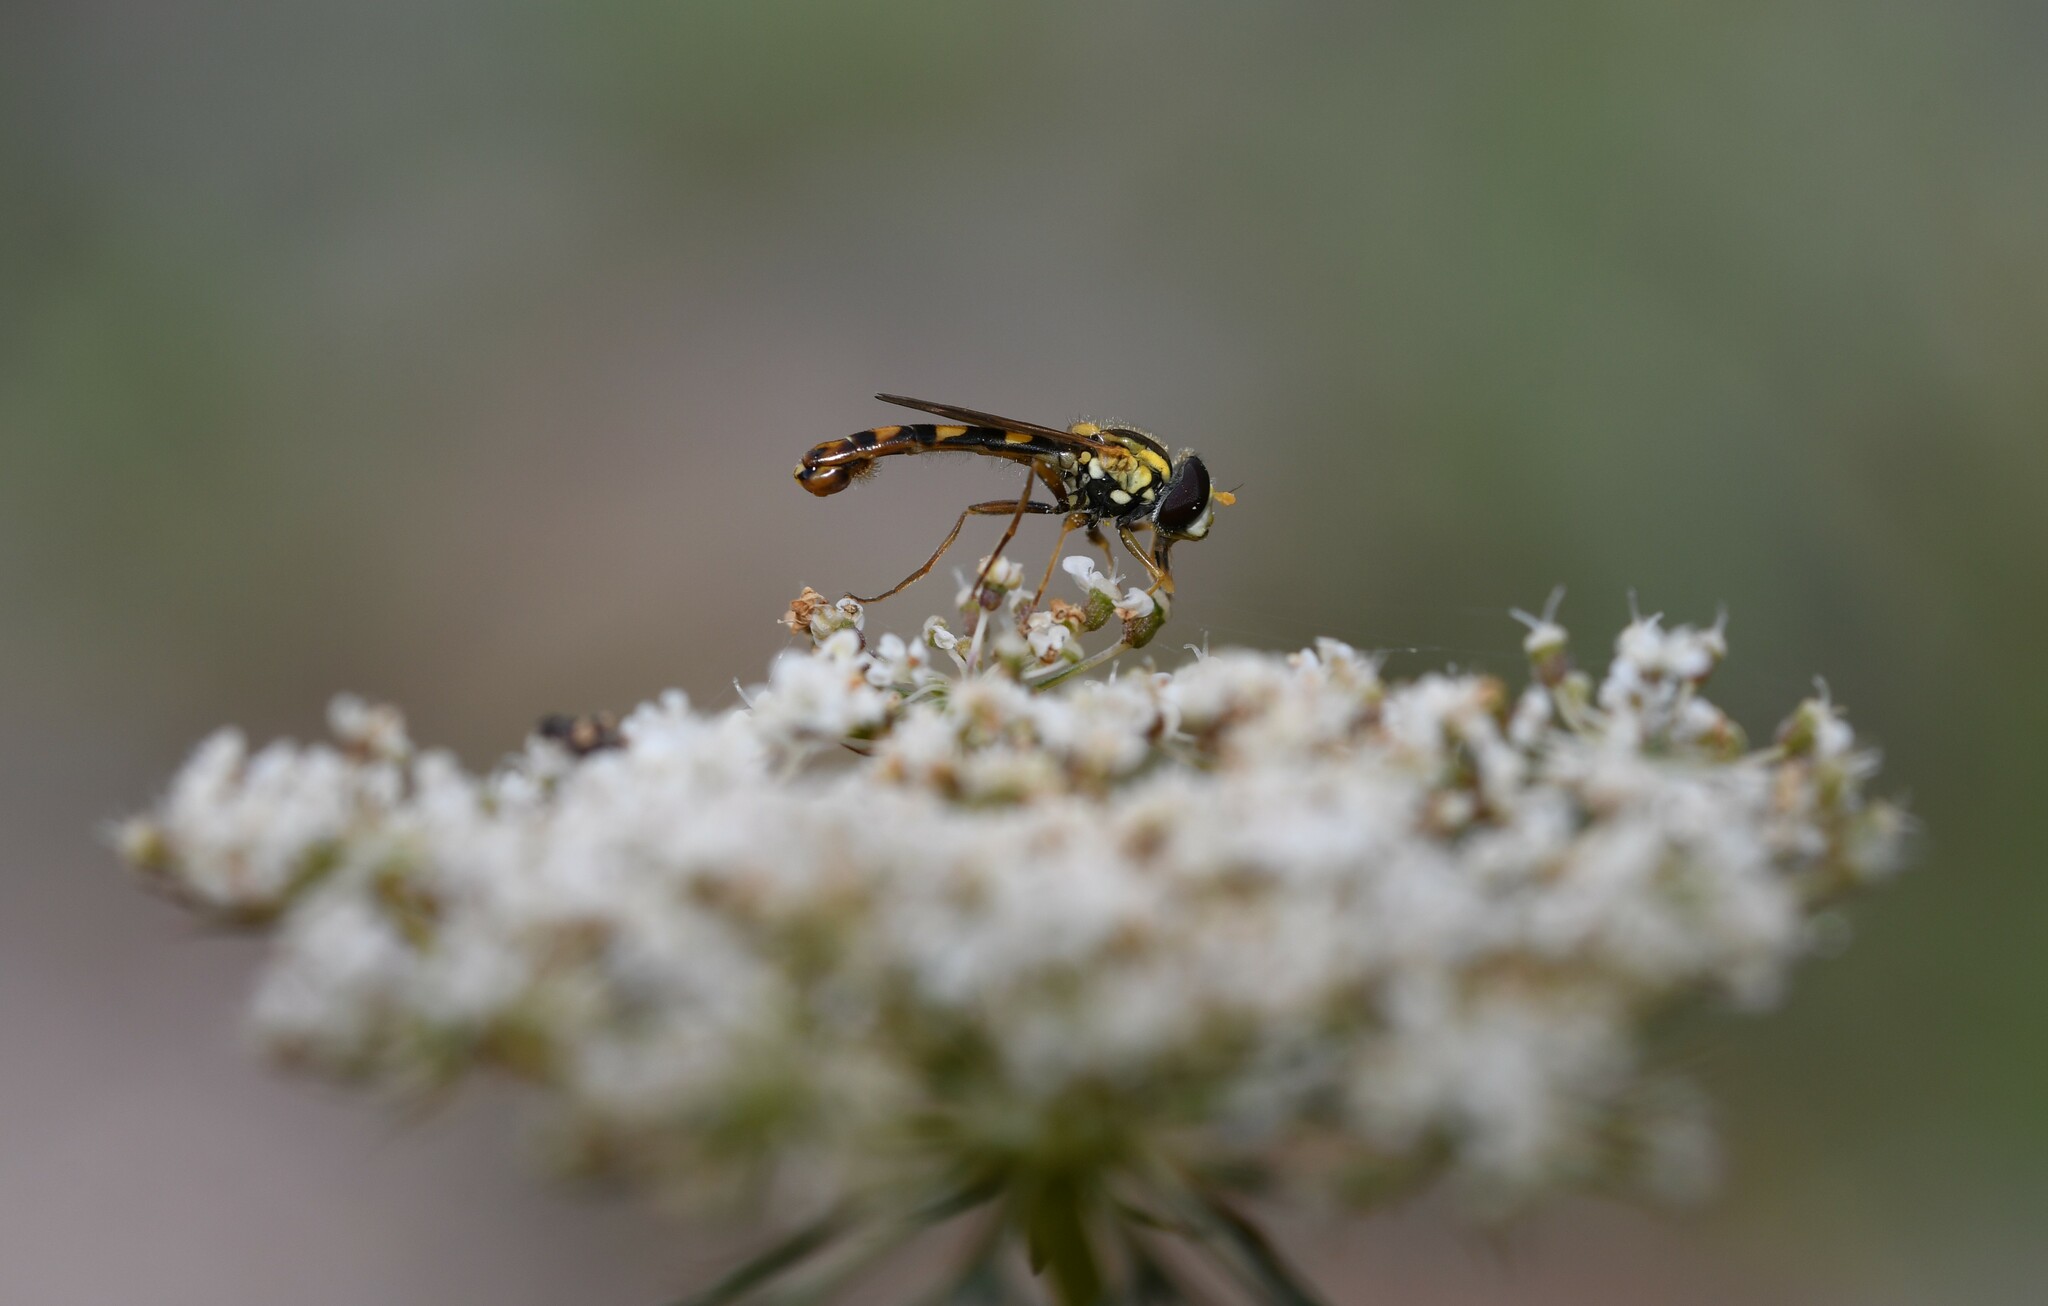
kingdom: Animalia
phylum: Arthropoda
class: Insecta
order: Diptera
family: Syrphidae
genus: Sphaerophoria
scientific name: Sphaerophoria scripta
